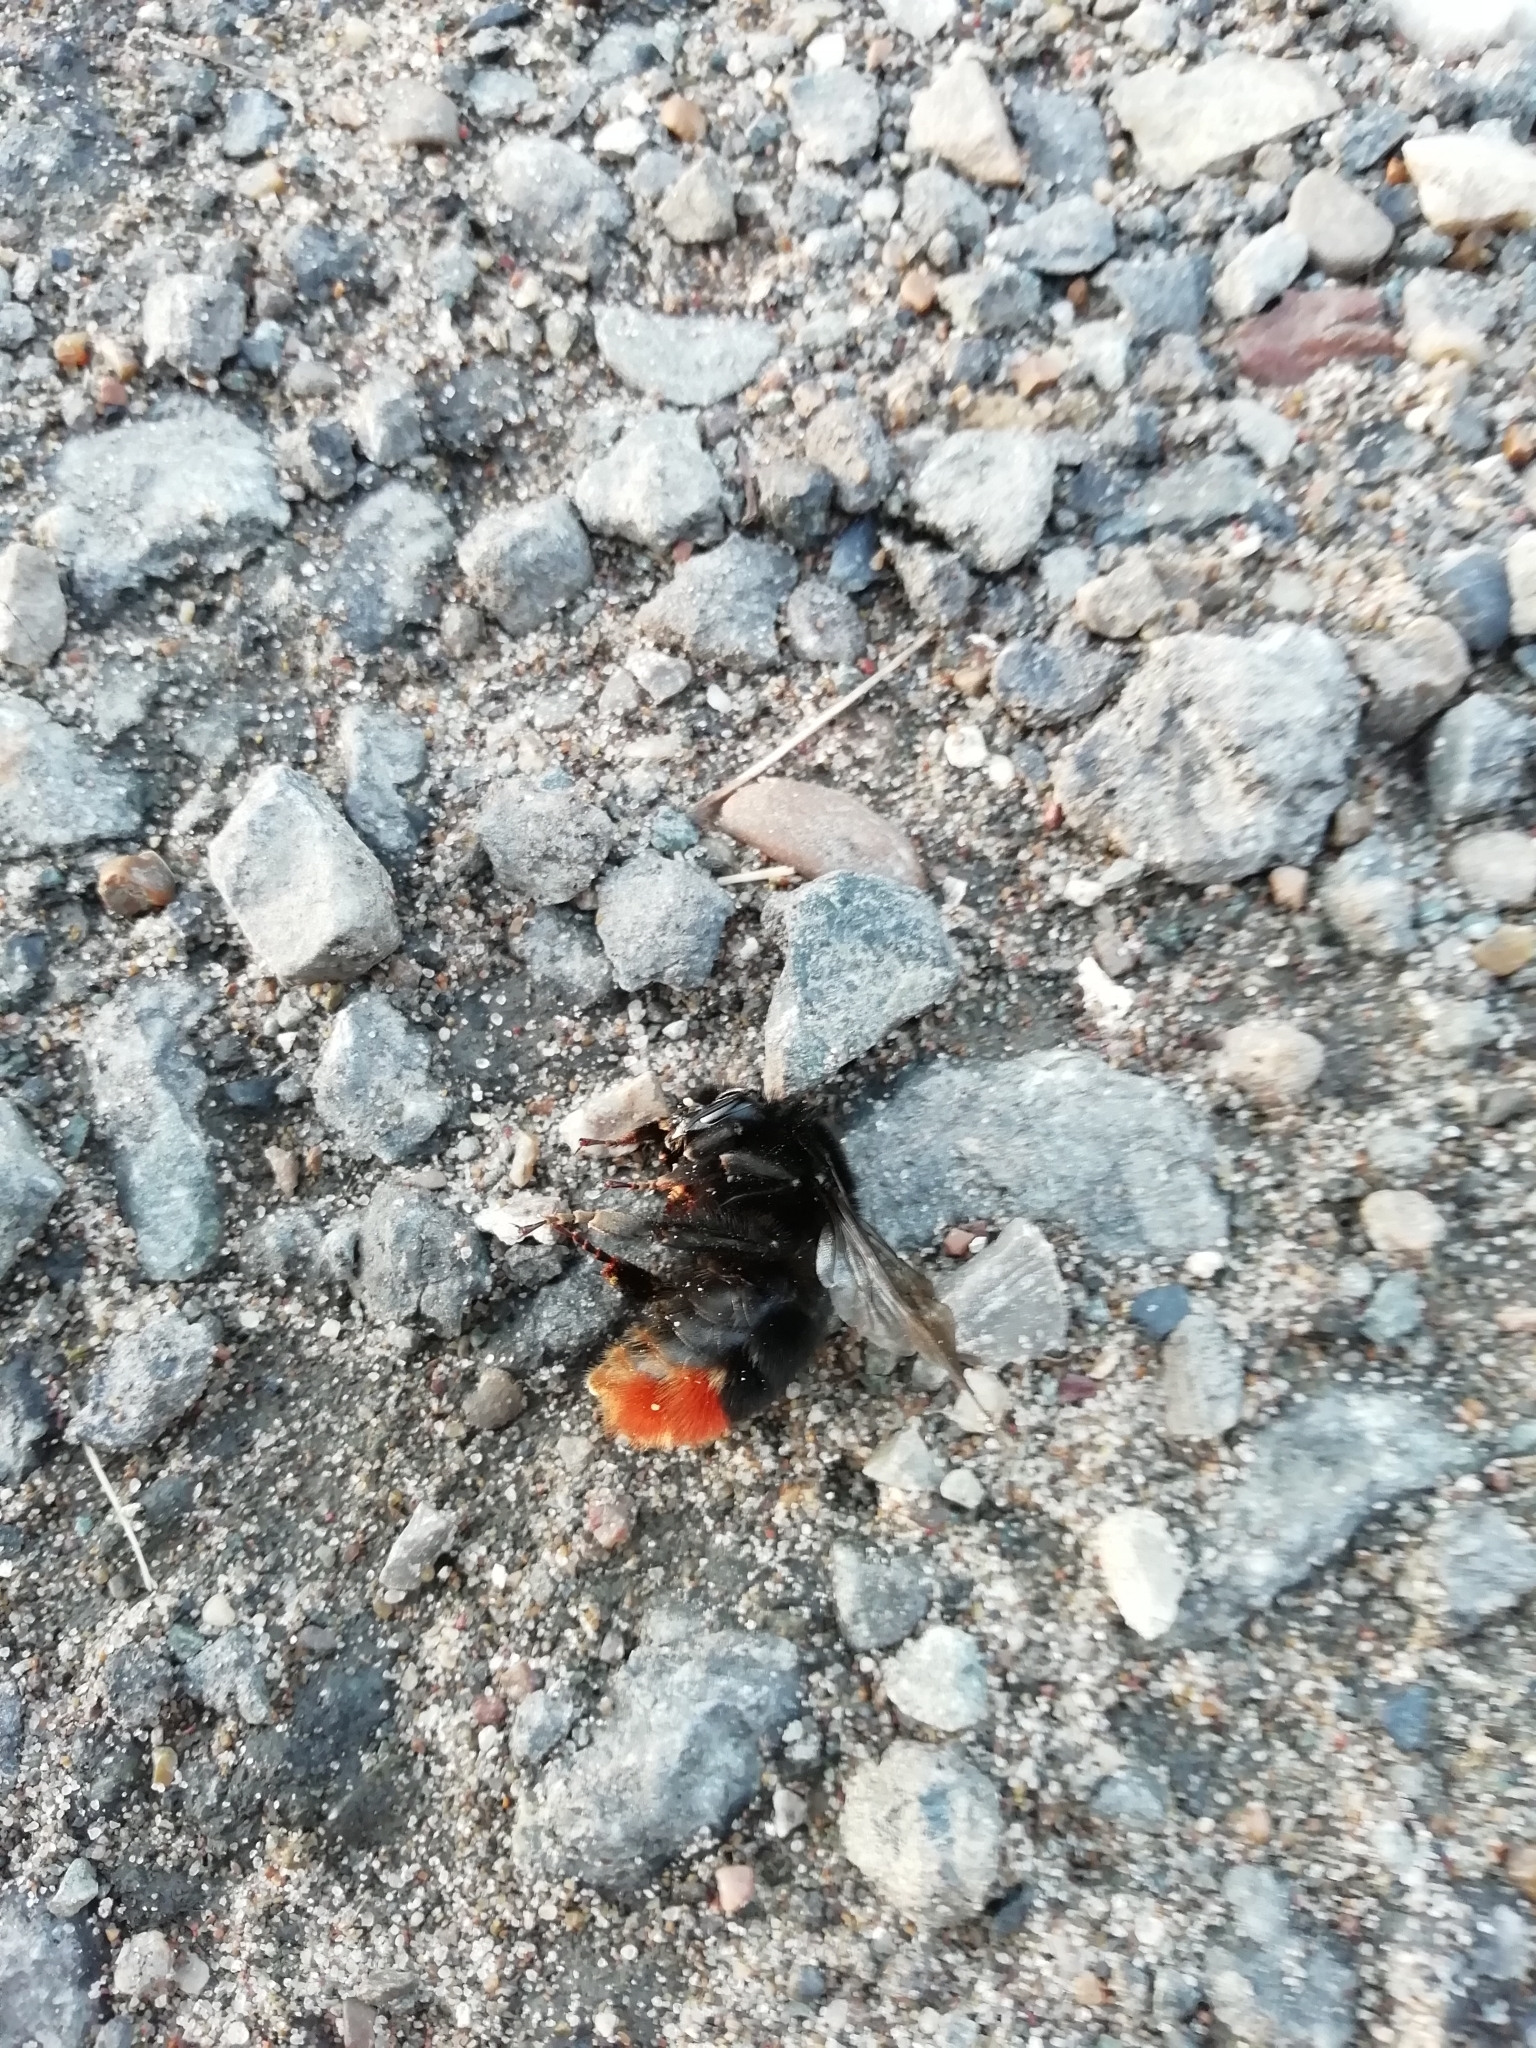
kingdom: Animalia
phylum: Arthropoda
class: Insecta
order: Hymenoptera
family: Apidae
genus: Bombus
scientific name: Bombus lapidarius
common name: Large red-tailed humble-bee
